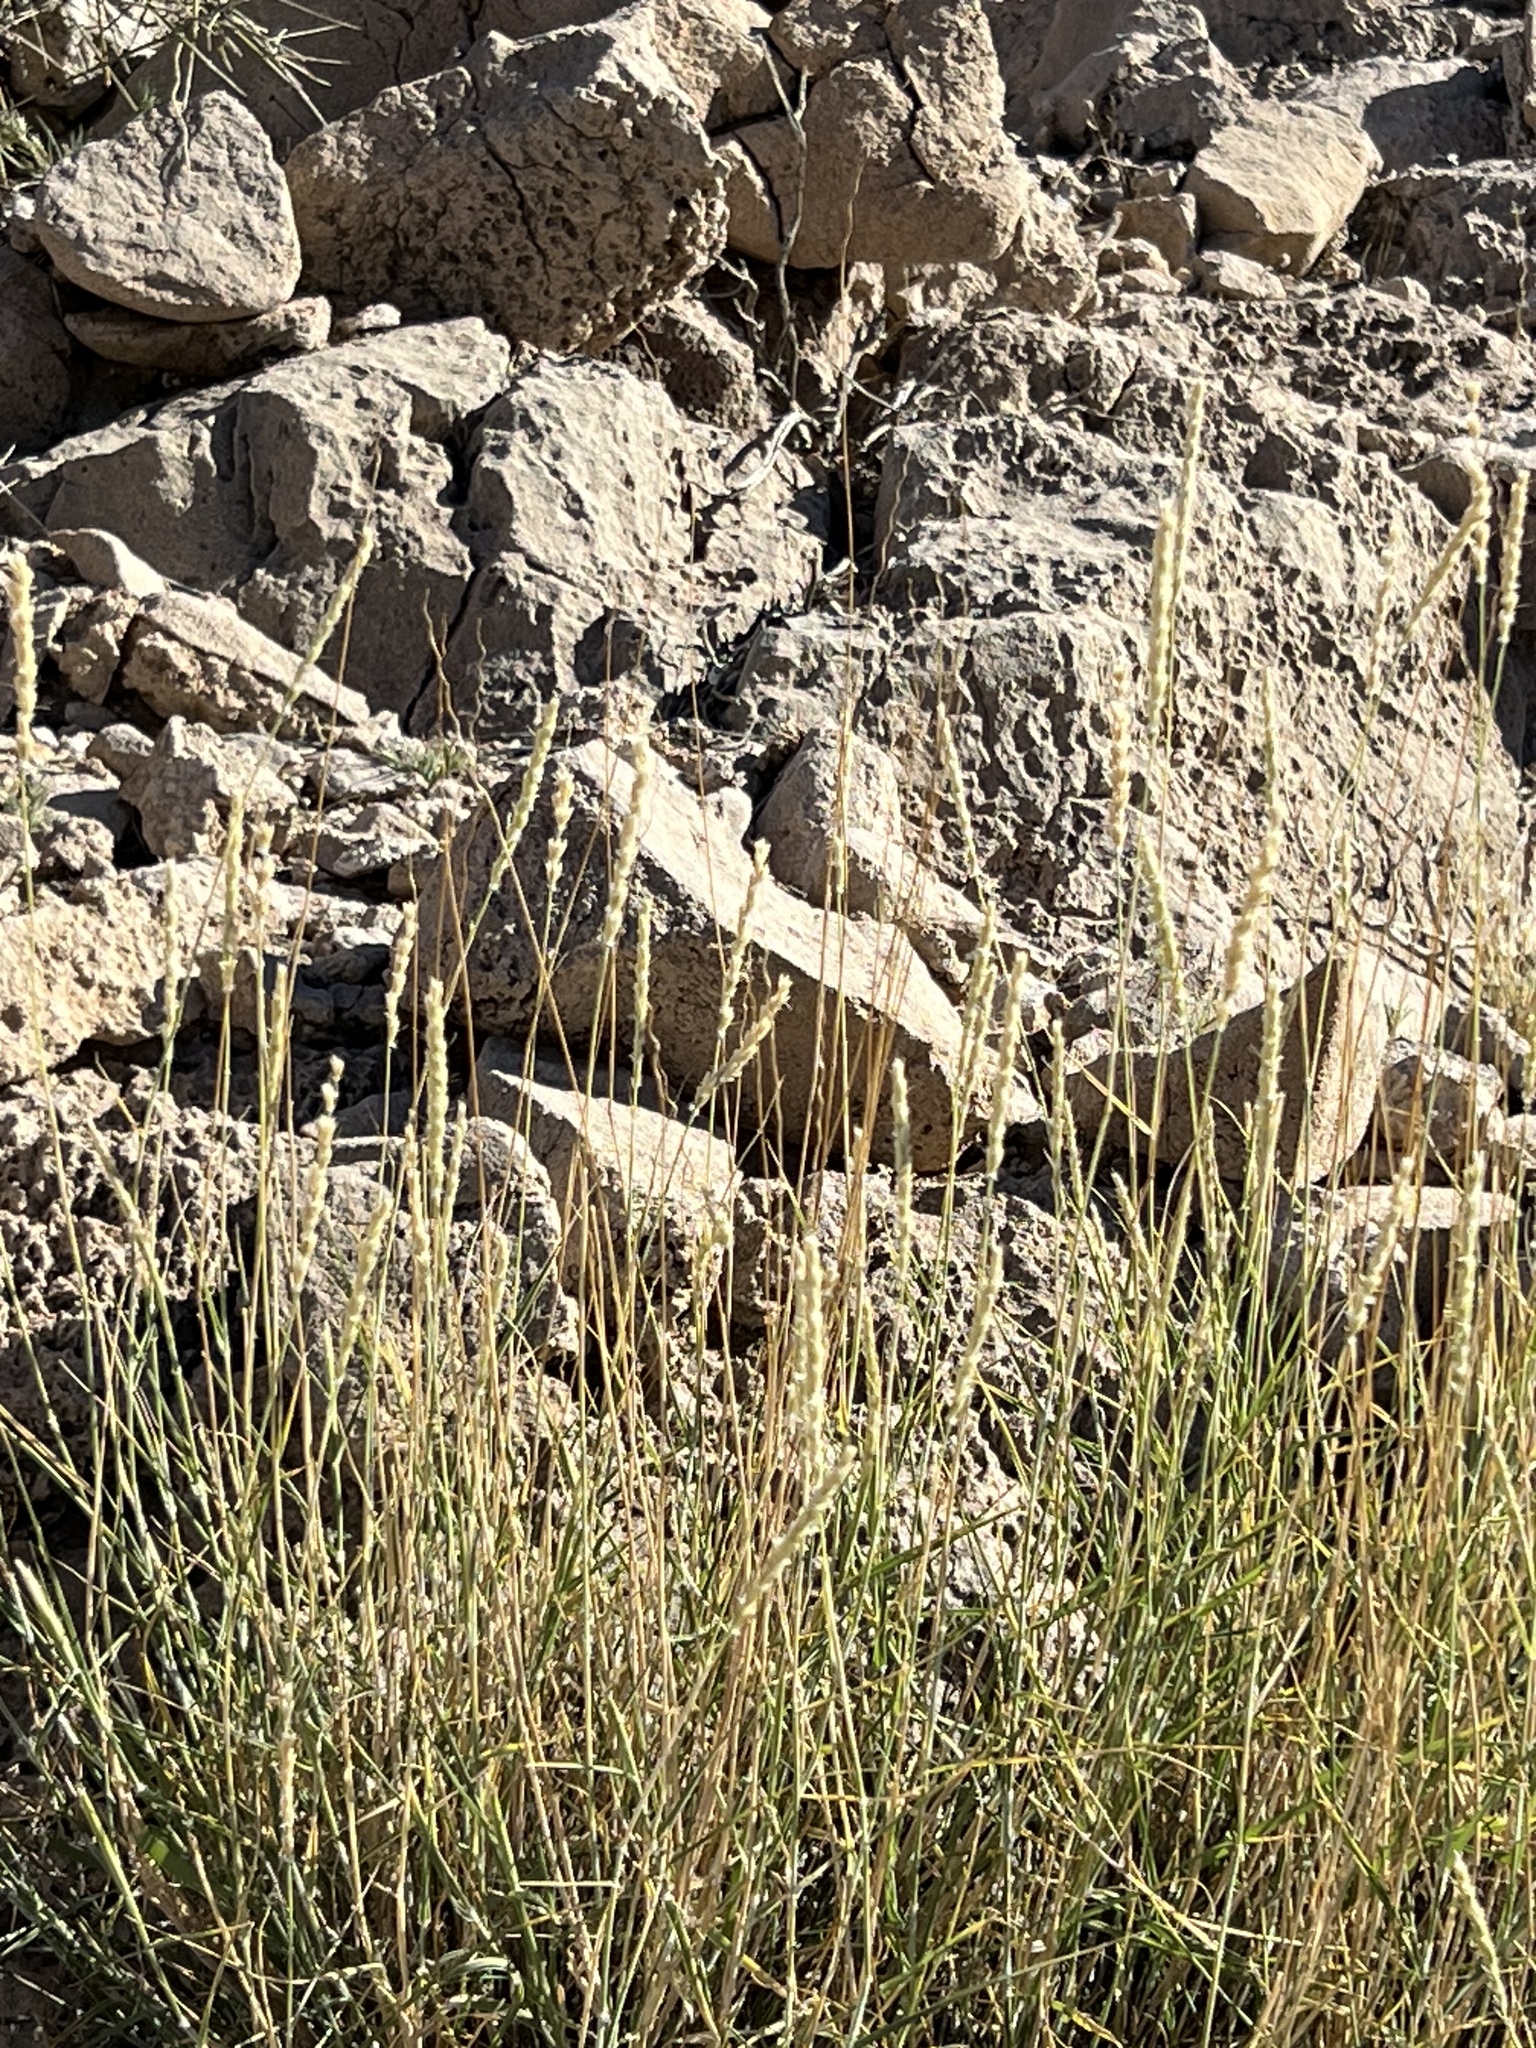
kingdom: Plantae
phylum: Tracheophyta
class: Liliopsida
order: Poales
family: Poaceae
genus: Hilaria
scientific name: Hilaria rigida
